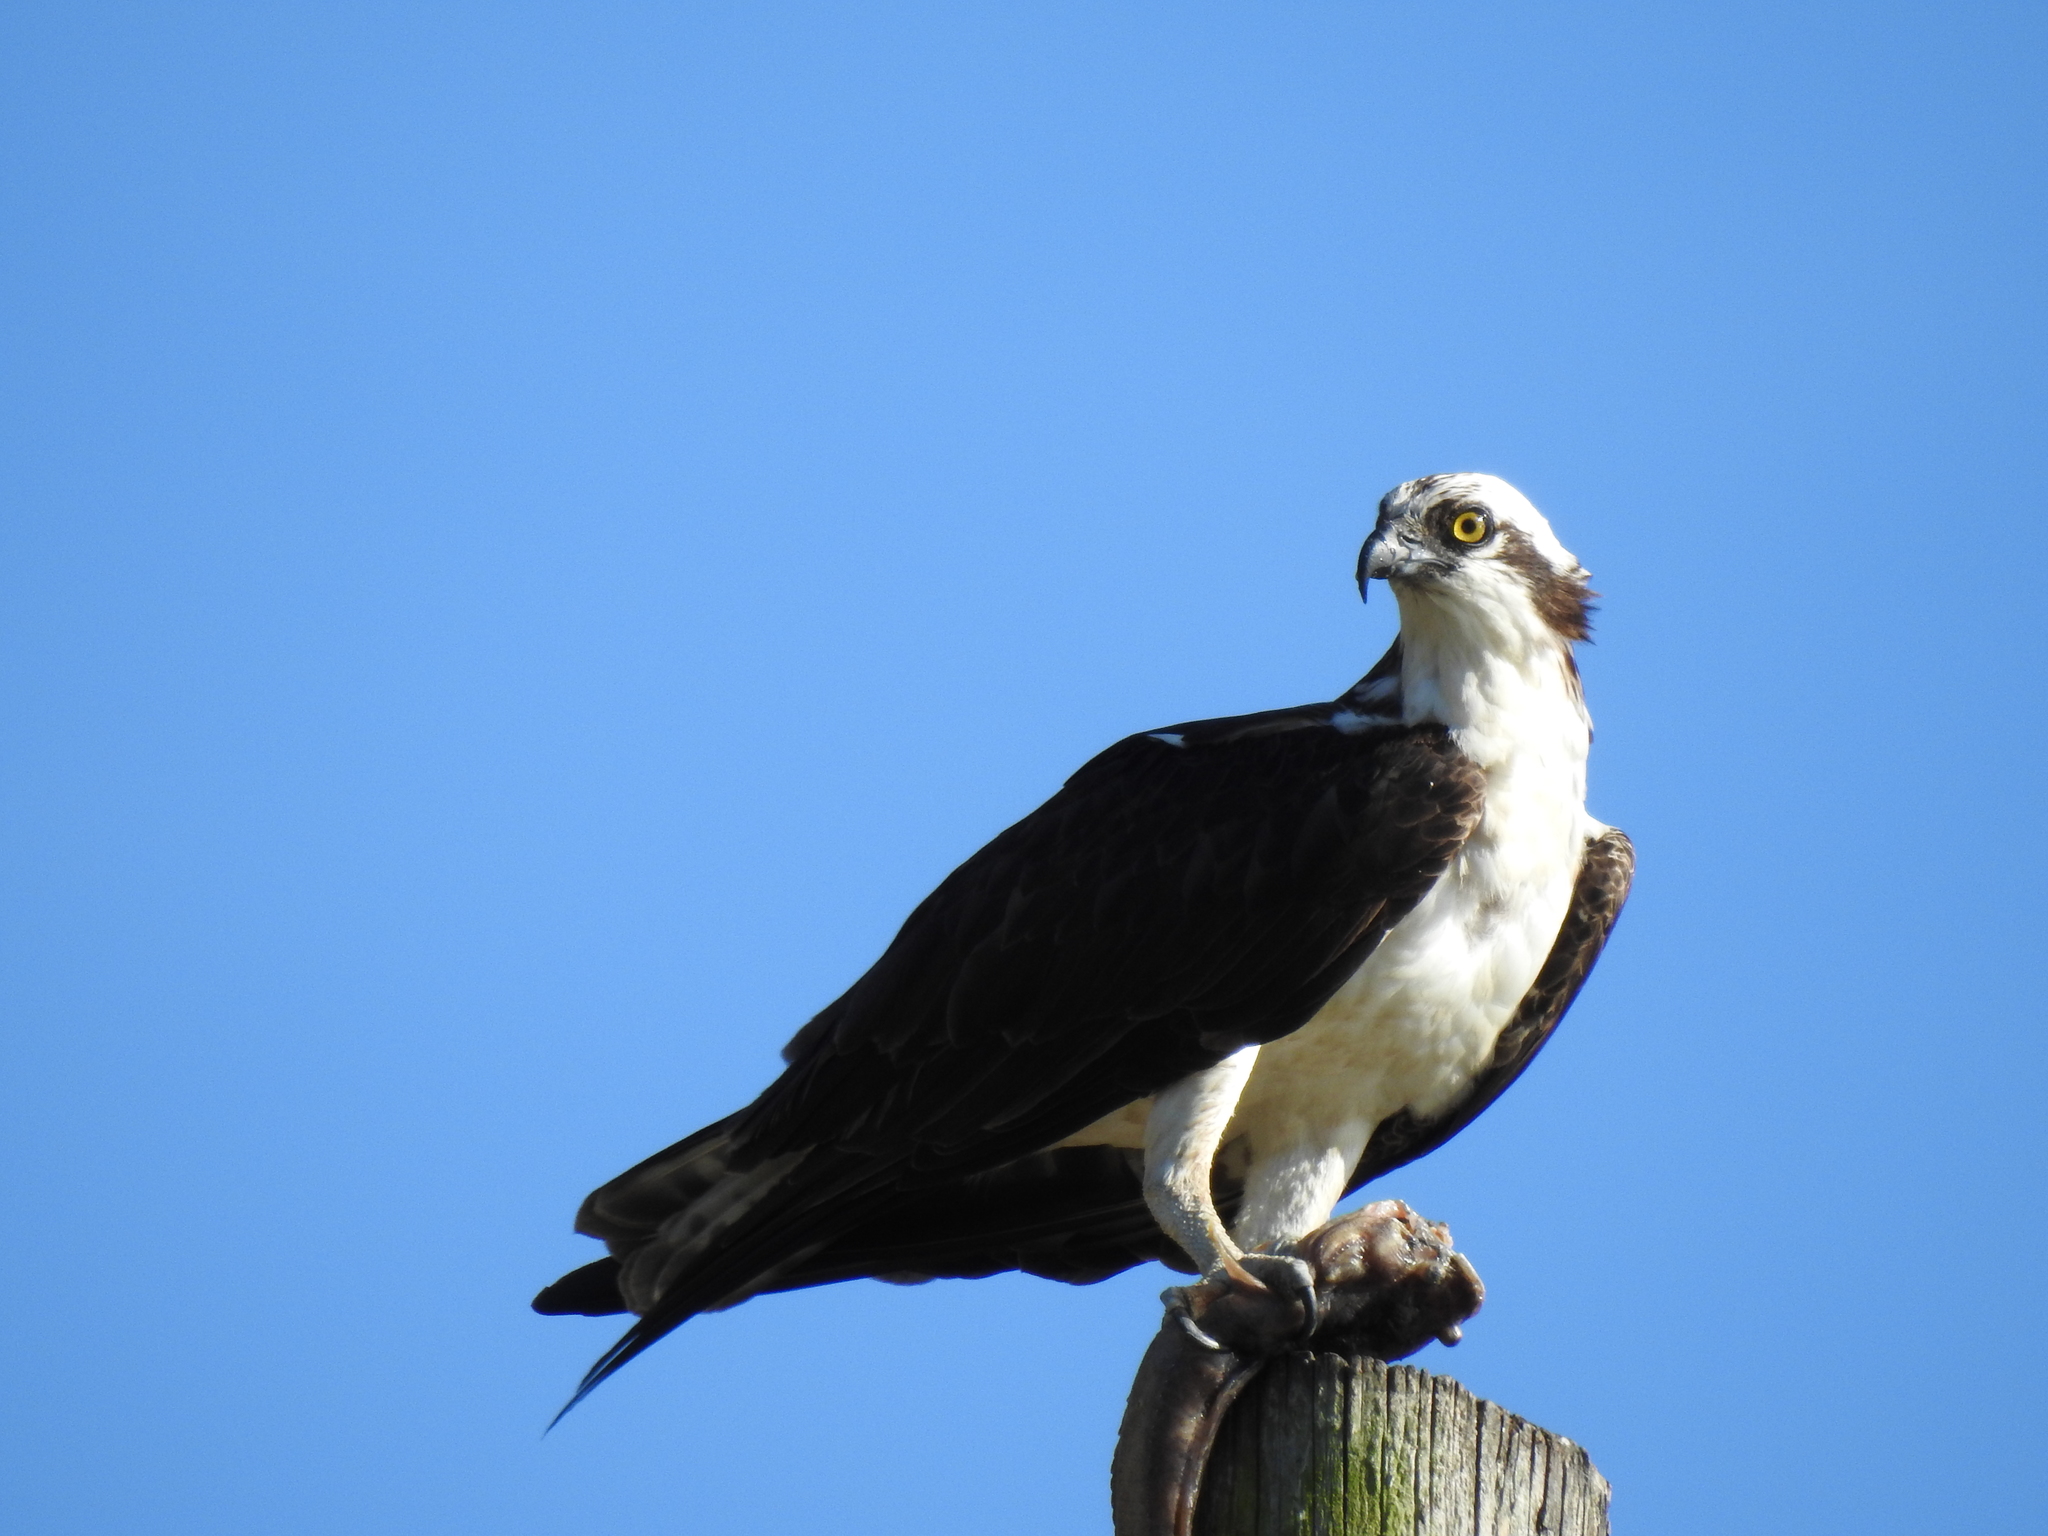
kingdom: Animalia
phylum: Chordata
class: Aves
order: Accipitriformes
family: Pandionidae
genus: Pandion
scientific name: Pandion haliaetus
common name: Osprey
